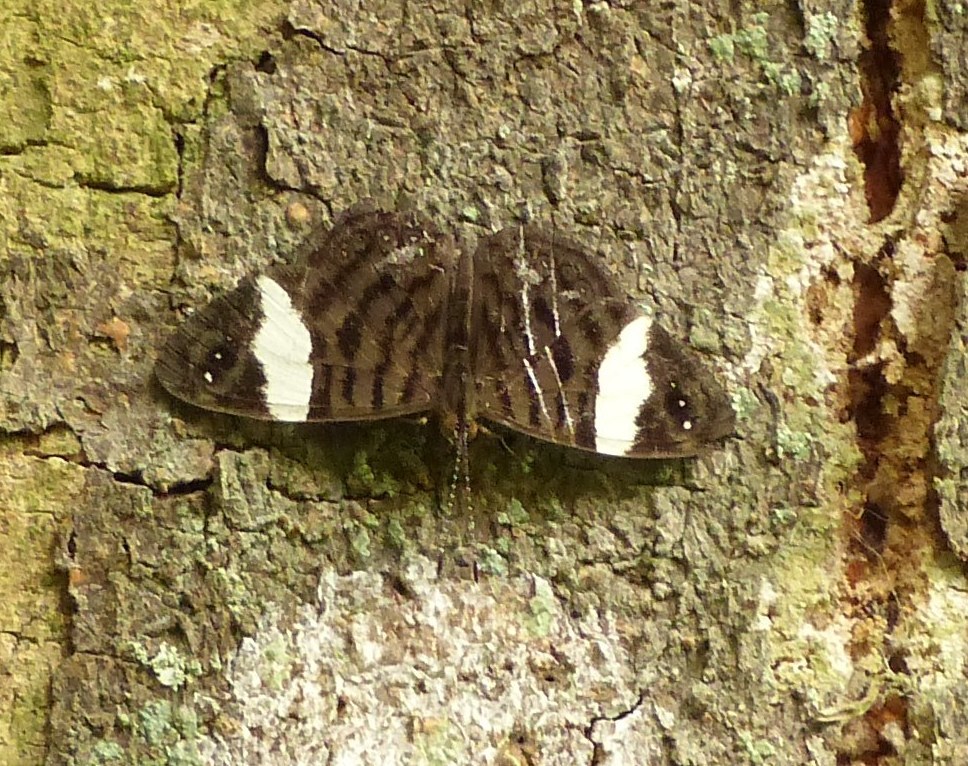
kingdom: Animalia
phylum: Arthropoda
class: Insecta
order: Lepidoptera
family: Nymphalidae
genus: Ectima
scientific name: Ectima thecla
